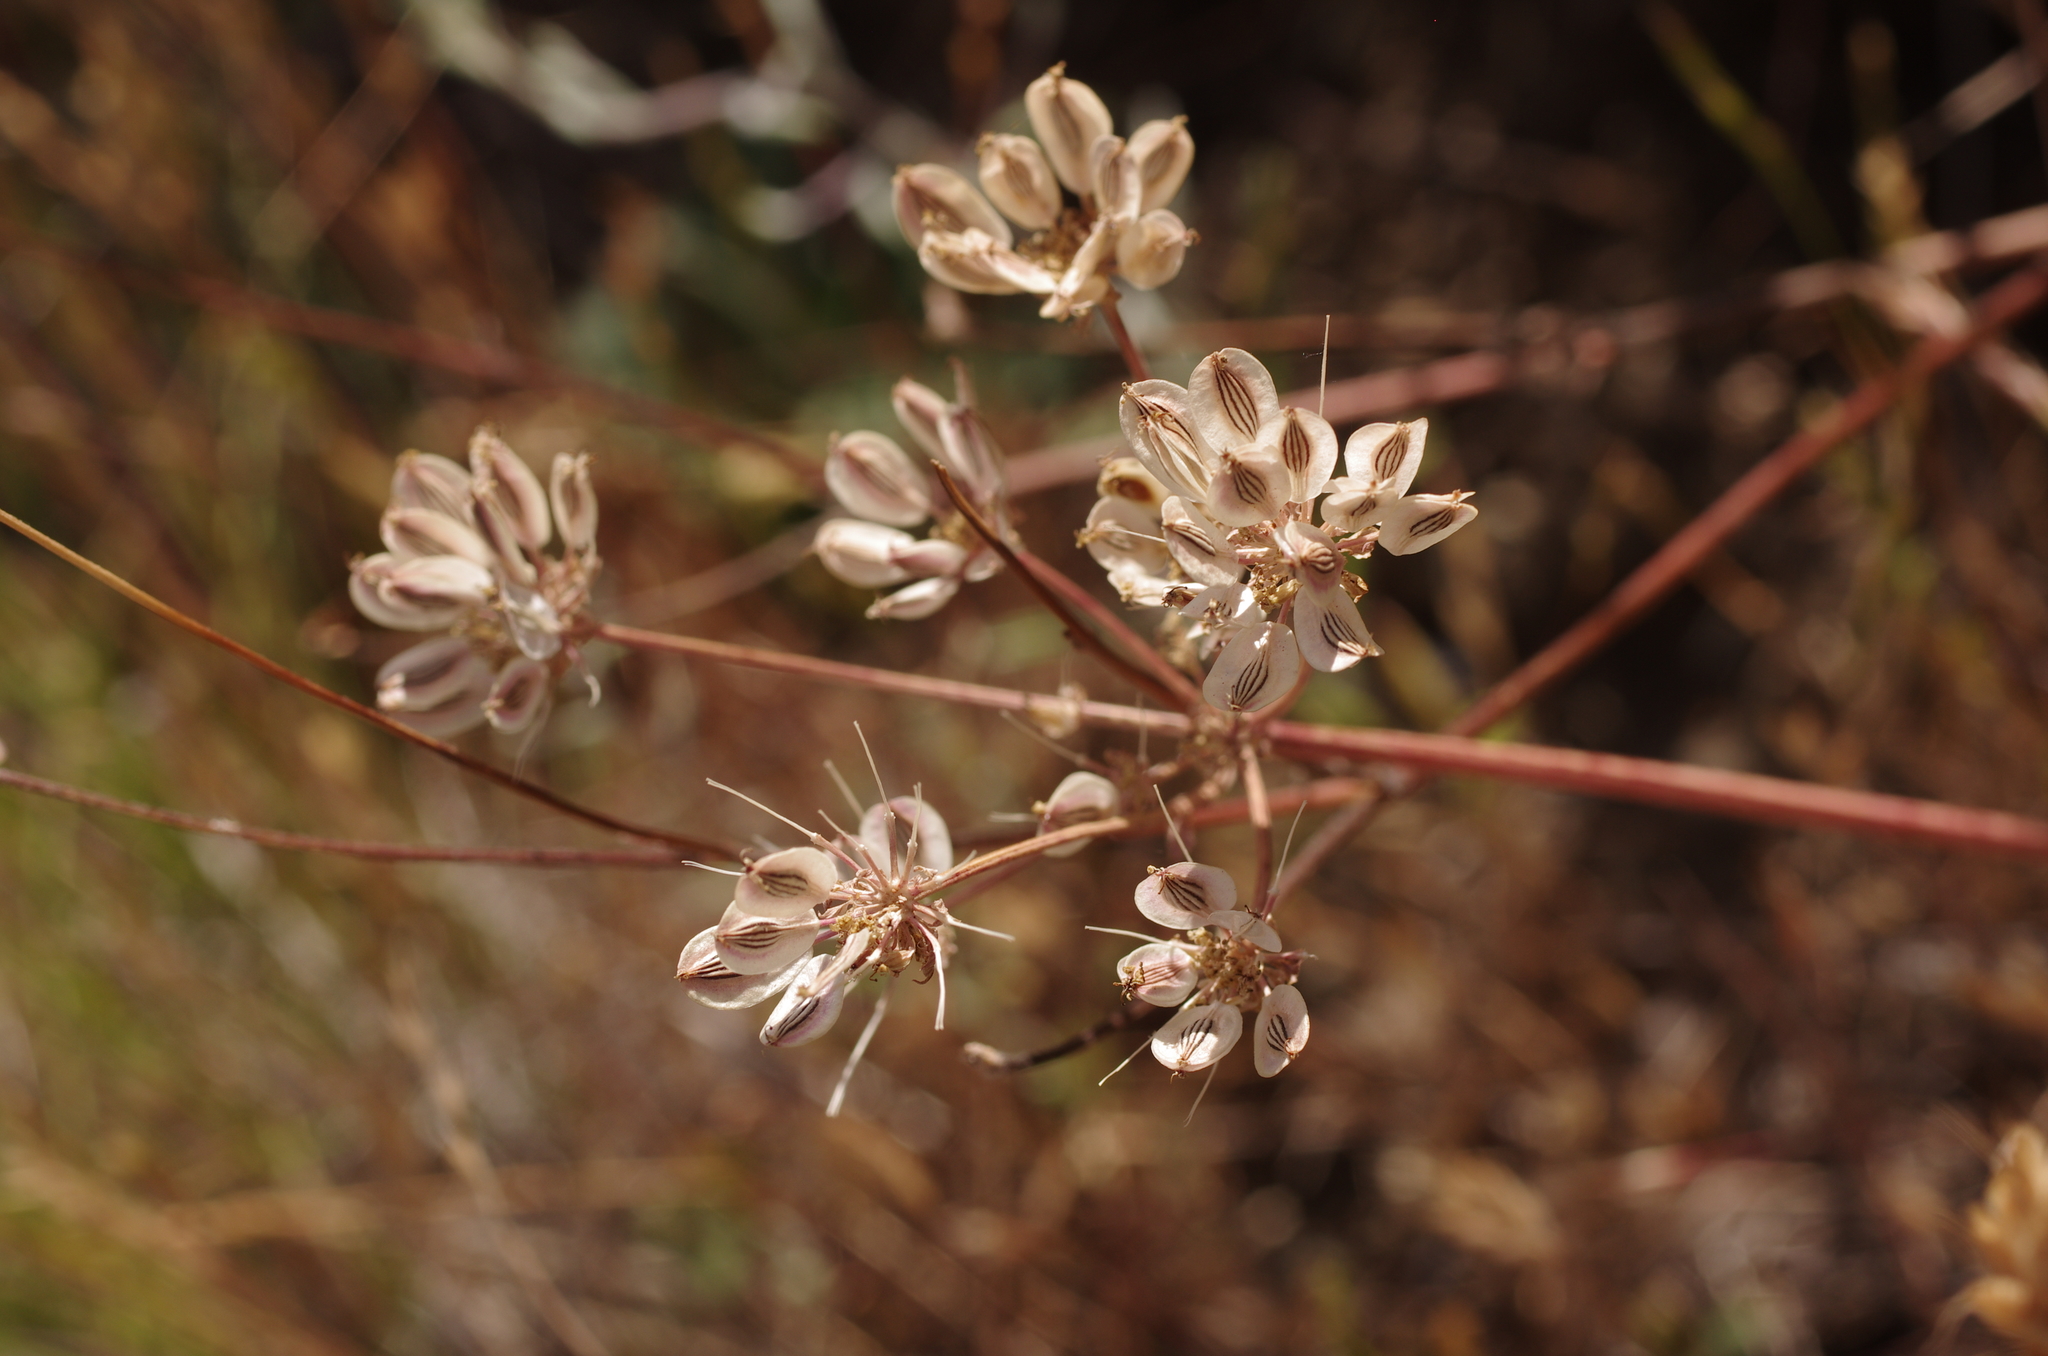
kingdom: Plantae
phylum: Tracheophyta
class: Magnoliopsida
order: Apiales
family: Apiaceae
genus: Lomatium
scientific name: Lomatium macrocarpum
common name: Big-seed biscuitroot
